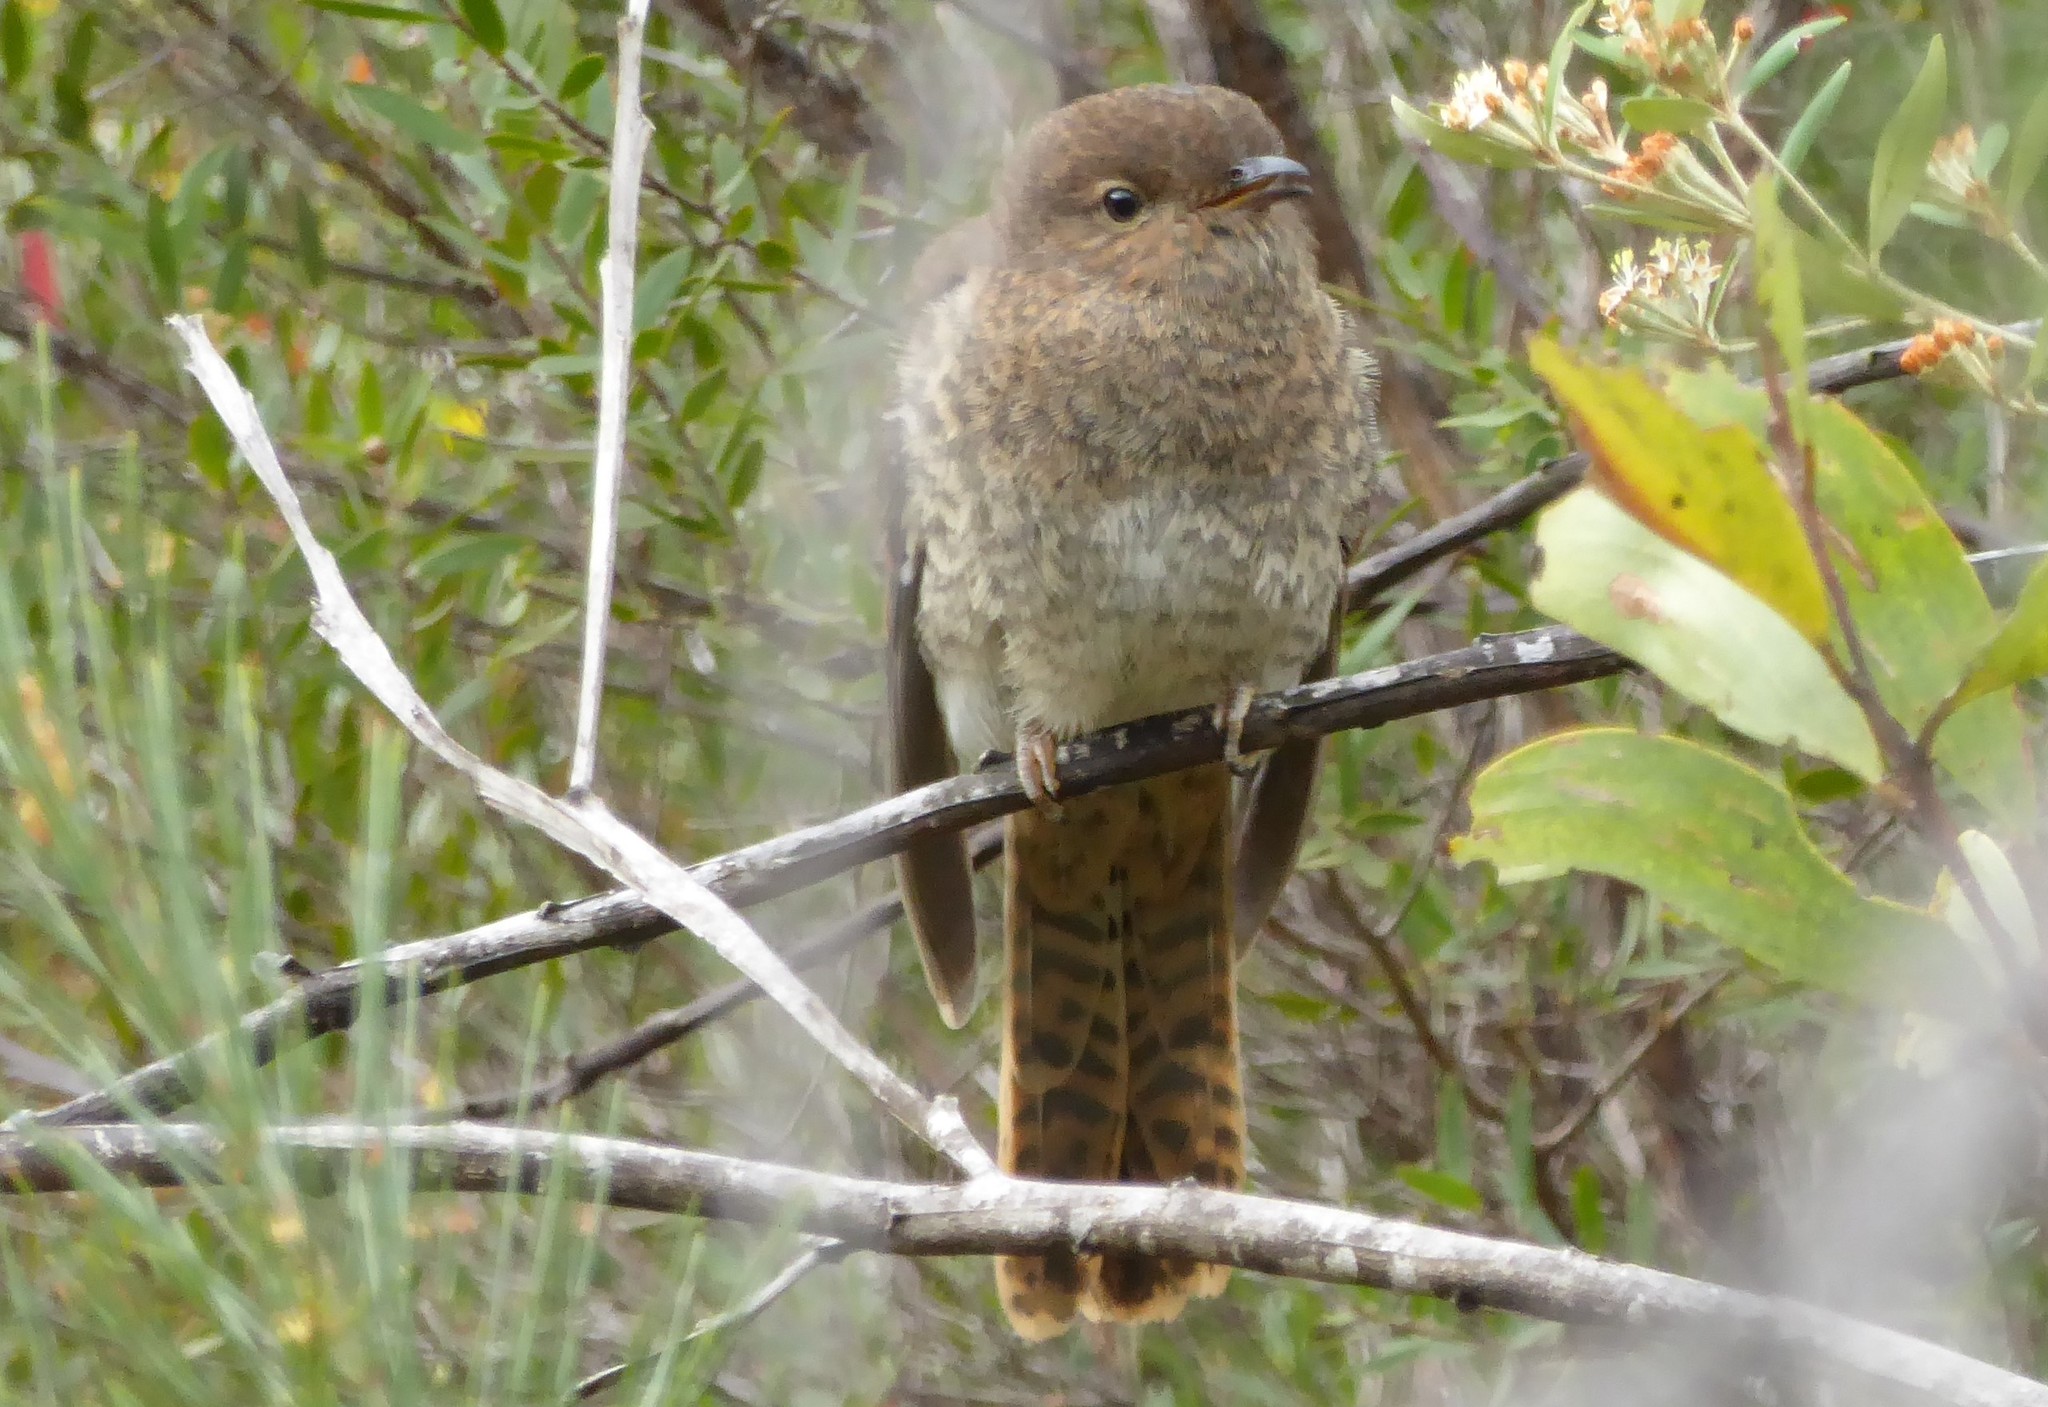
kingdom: Animalia
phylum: Chordata
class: Aves
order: Cuculiformes
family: Cuculidae
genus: Cacomantis
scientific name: Cacomantis flabelliformis
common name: Fan-tailed cuckoo
